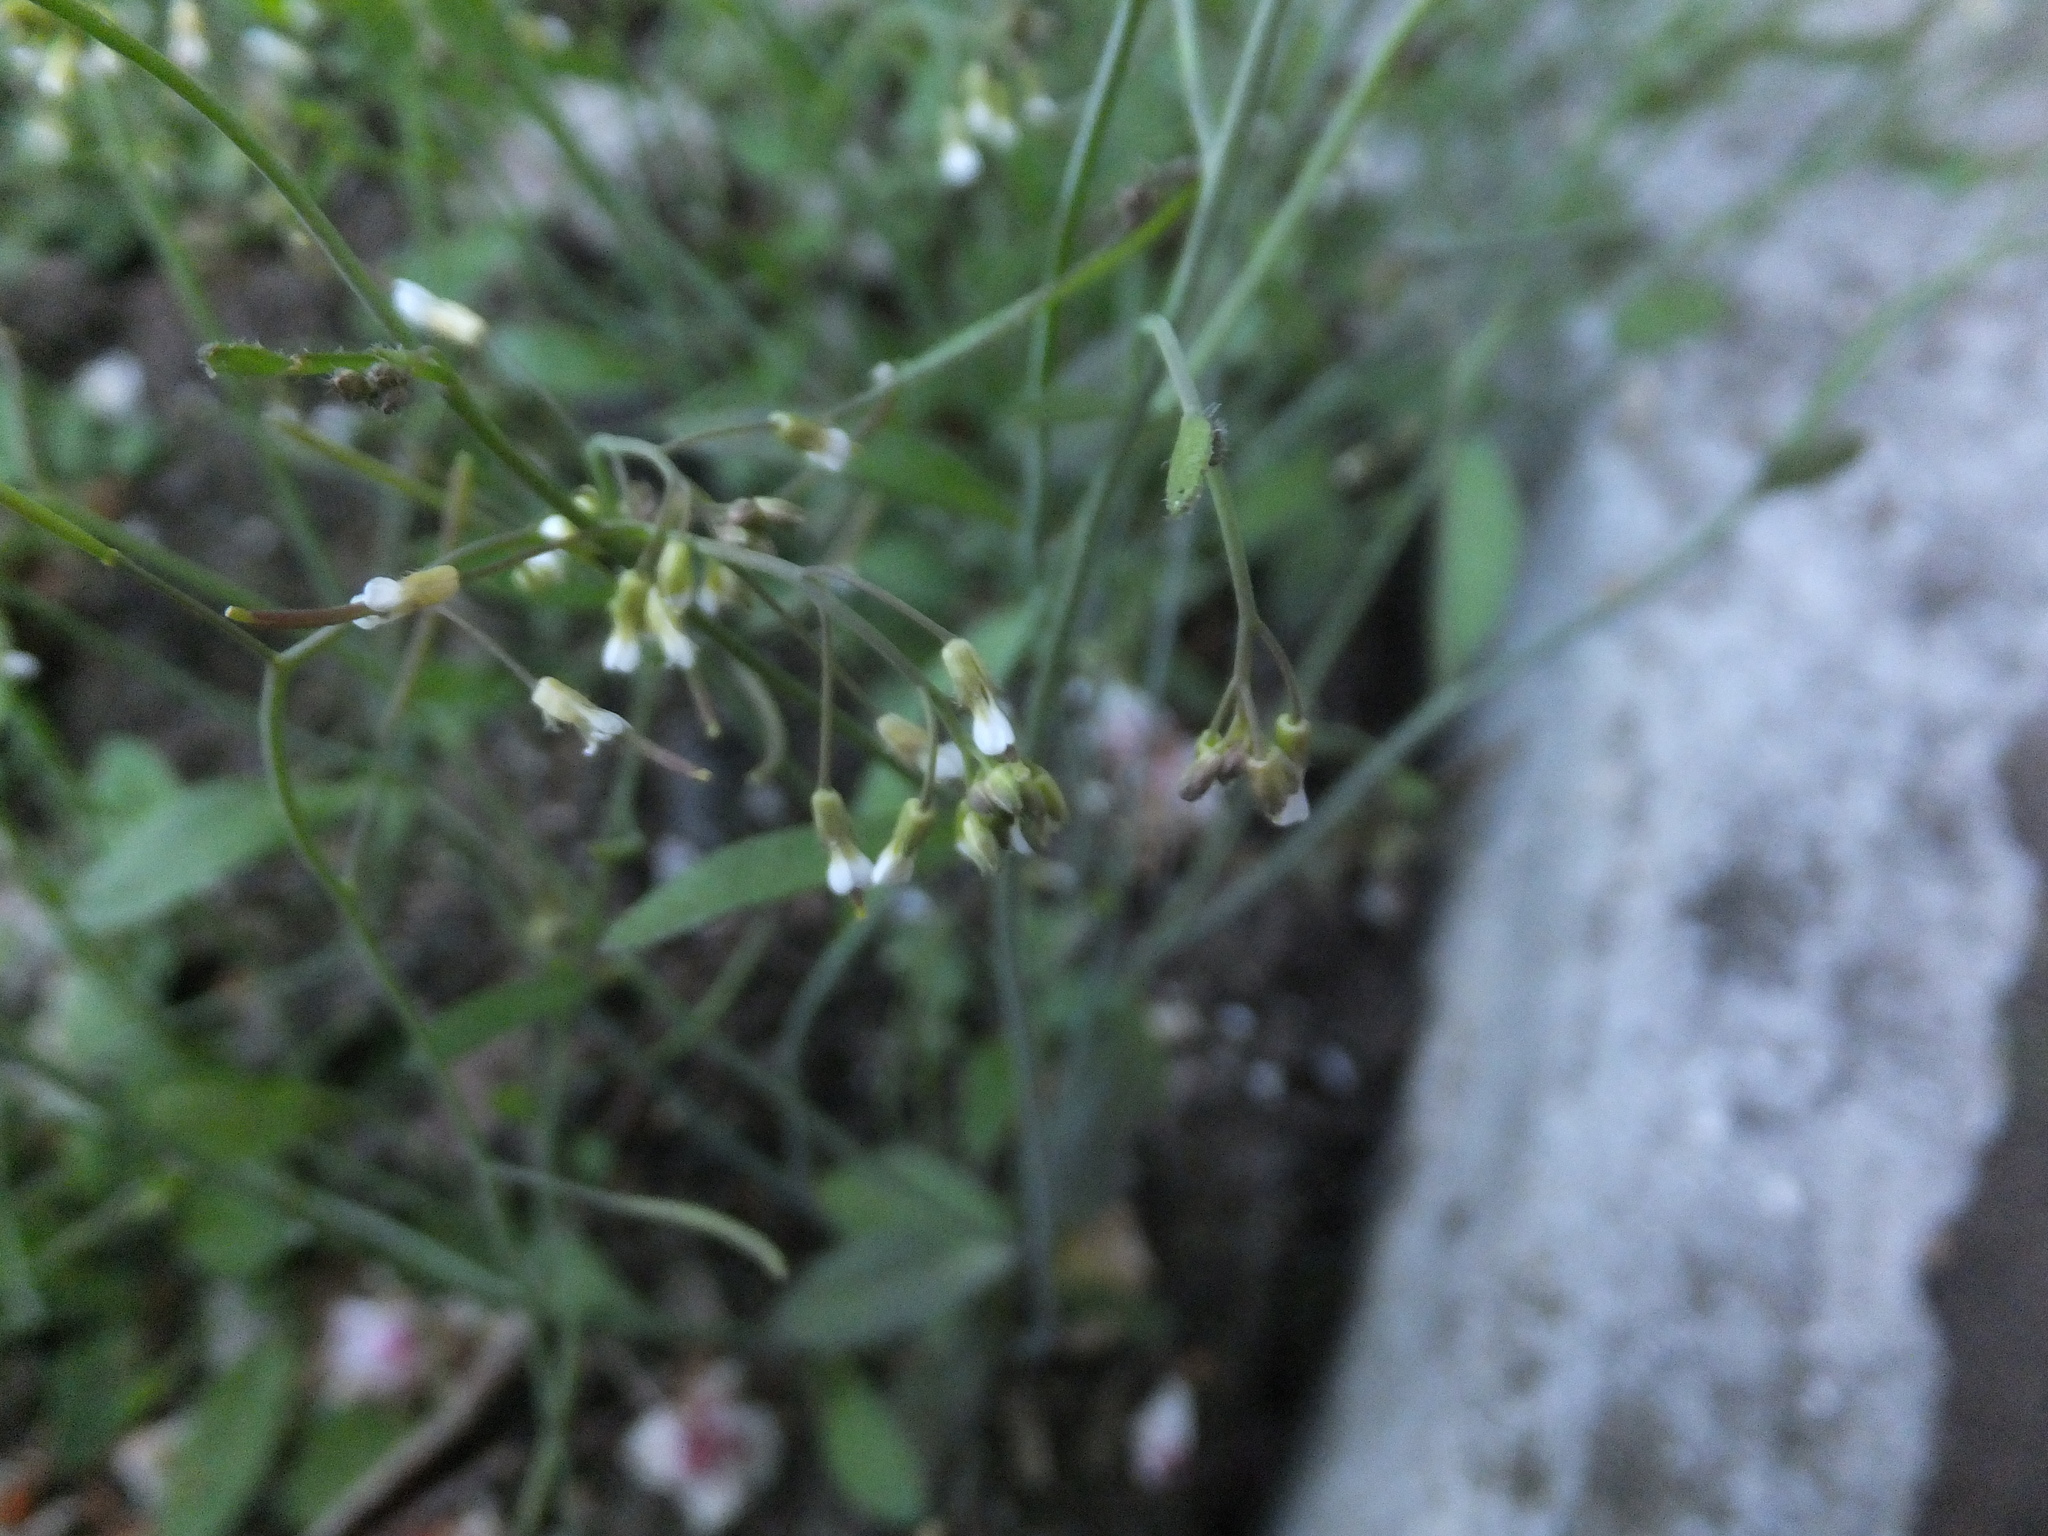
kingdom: Plantae
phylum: Tracheophyta
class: Magnoliopsida
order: Brassicales
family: Brassicaceae
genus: Arabidopsis
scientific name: Arabidopsis thaliana
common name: Thale cress
